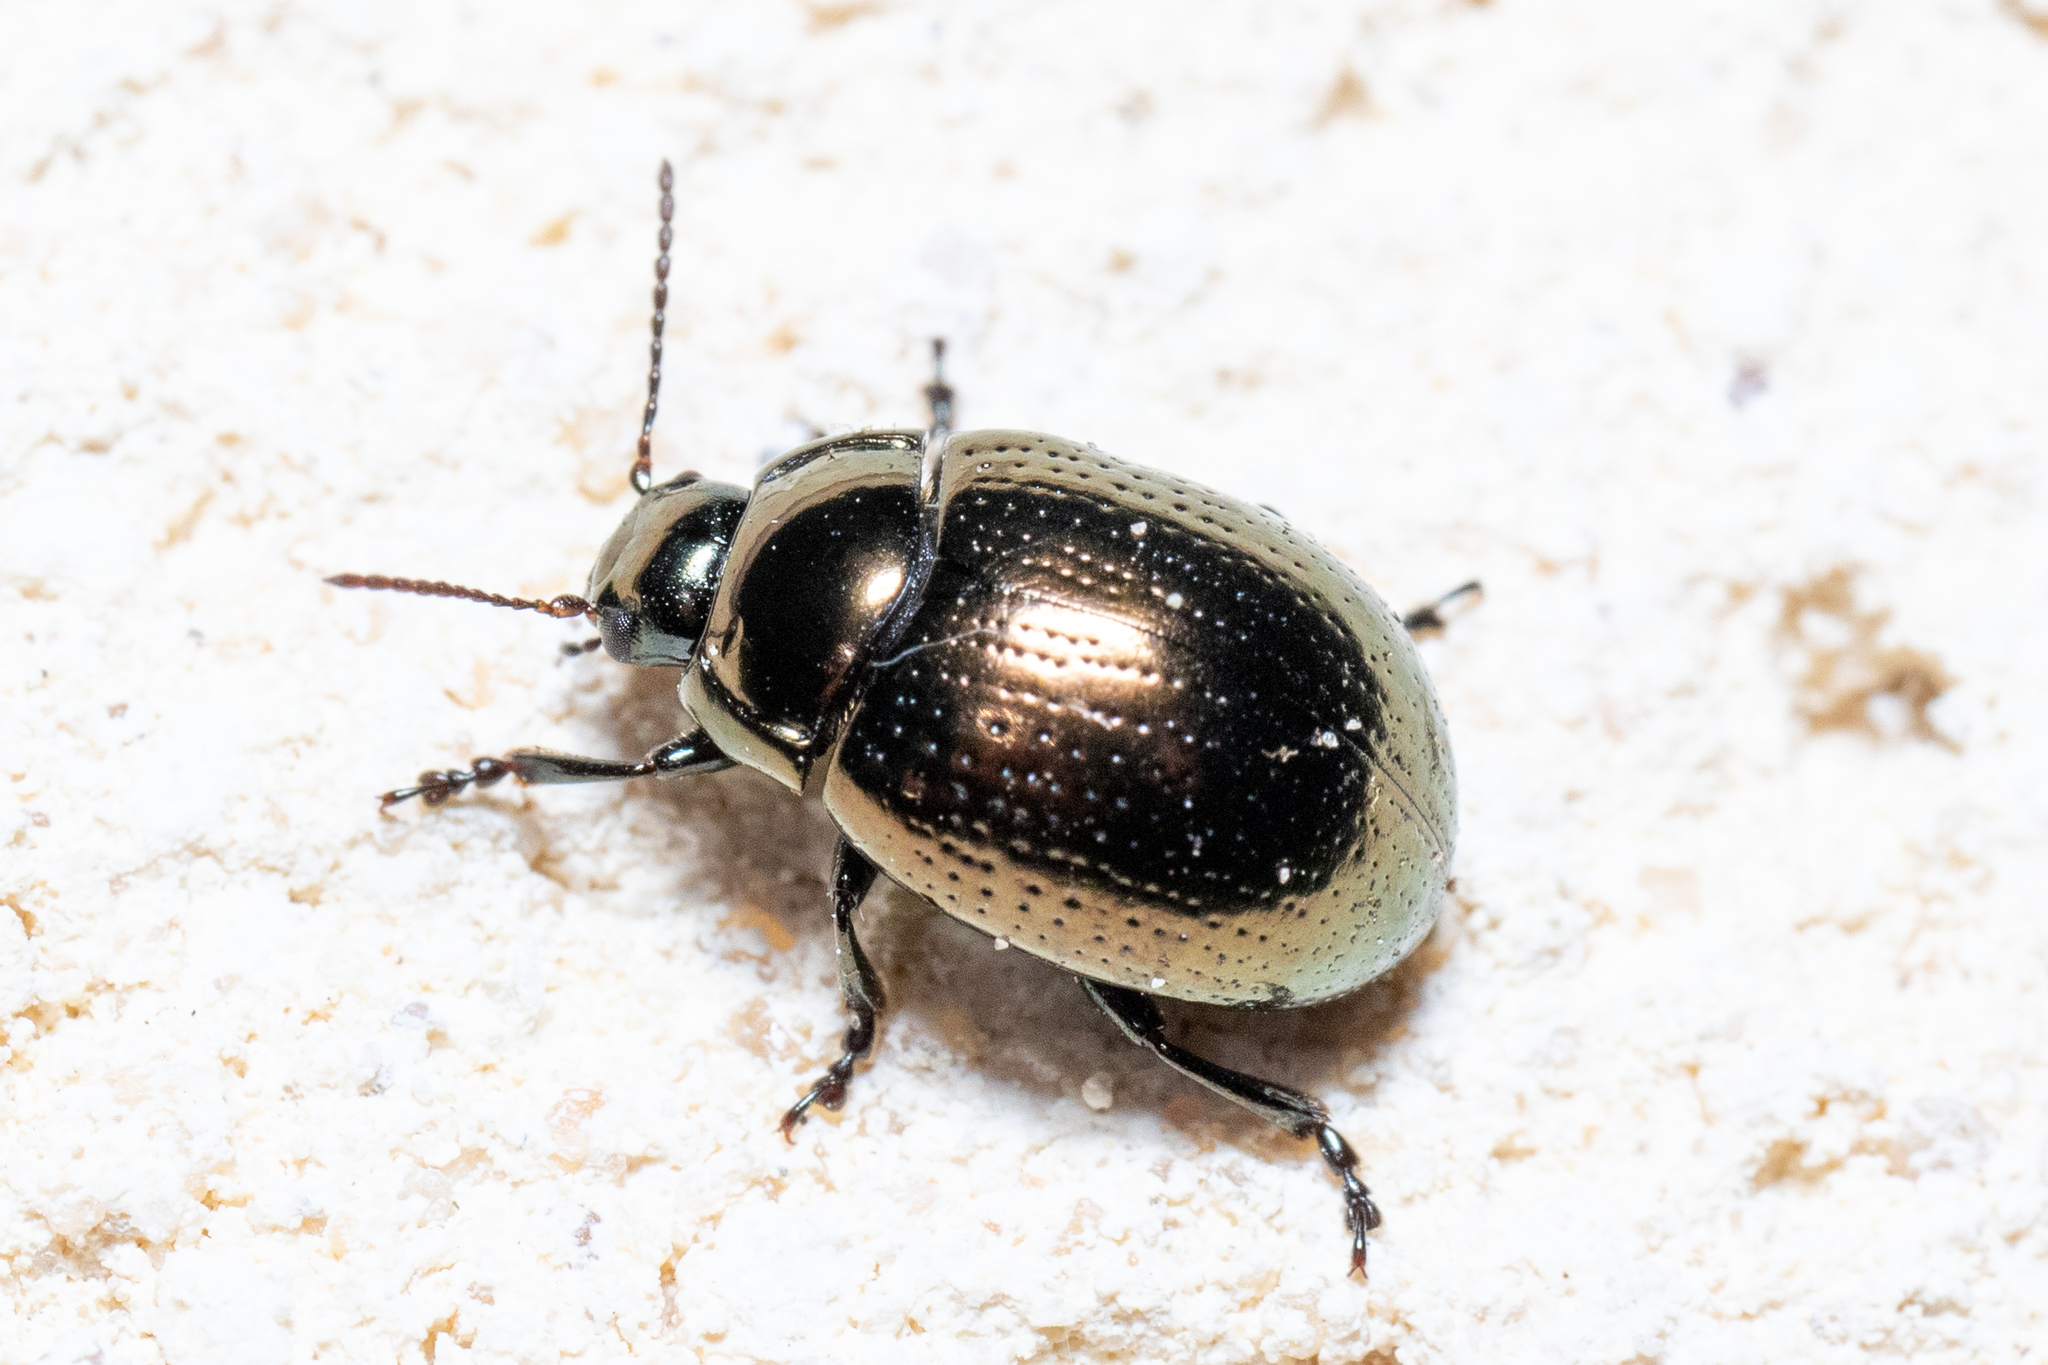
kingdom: Animalia
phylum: Arthropoda
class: Insecta
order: Coleoptera
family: Chrysomelidae
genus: Chrysolina
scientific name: Chrysolina oricalcia
